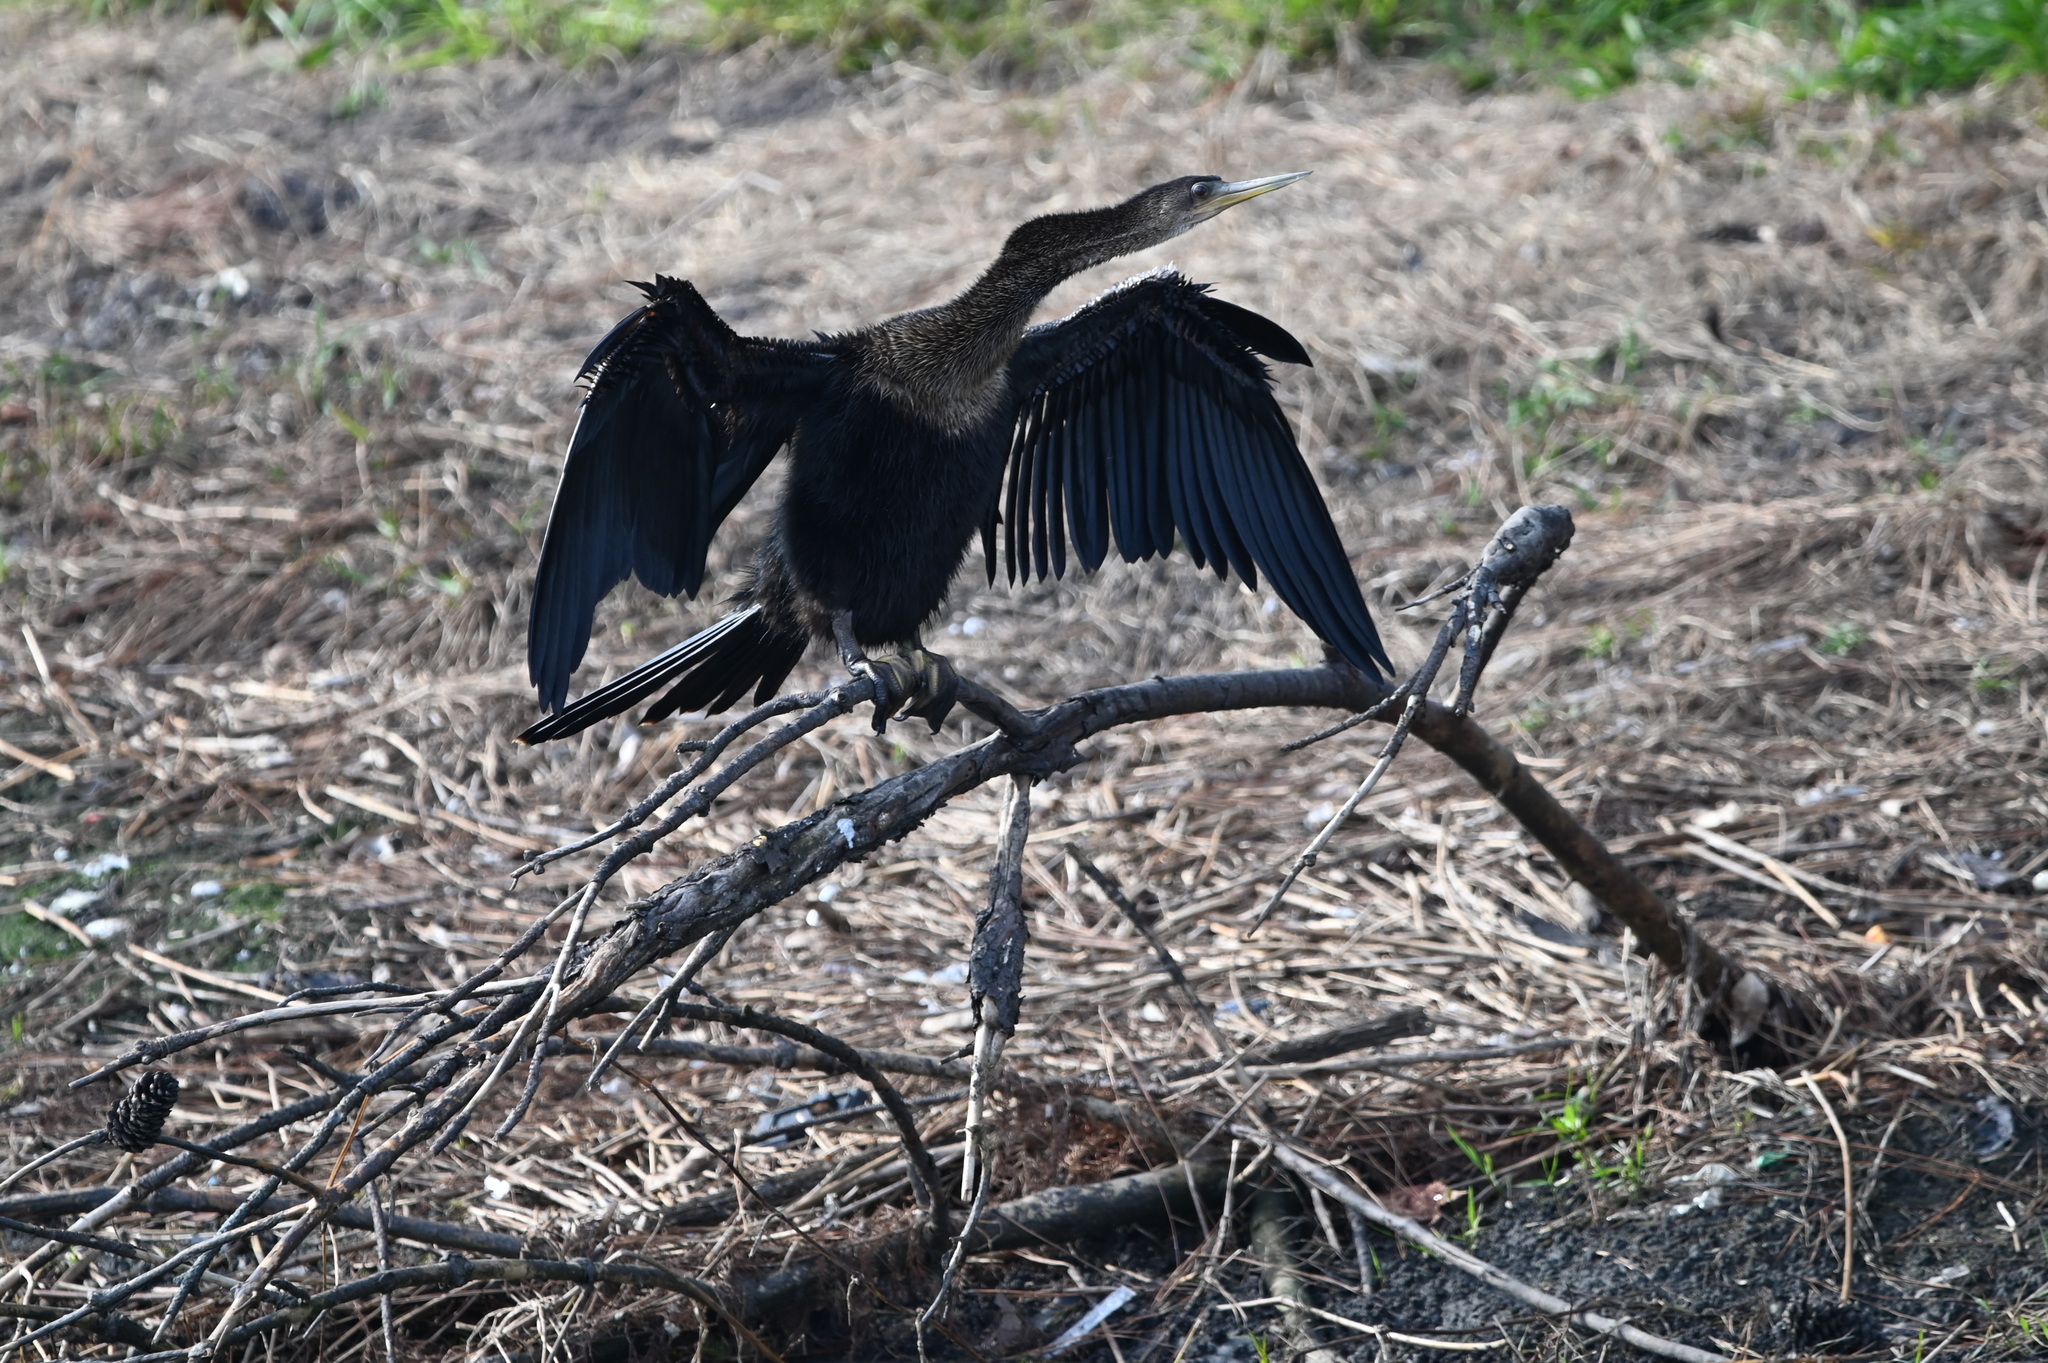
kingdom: Animalia
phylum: Chordata
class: Aves
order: Suliformes
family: Anhingidae
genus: Anhinga
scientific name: Anhinga anhinga
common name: Anhinga
